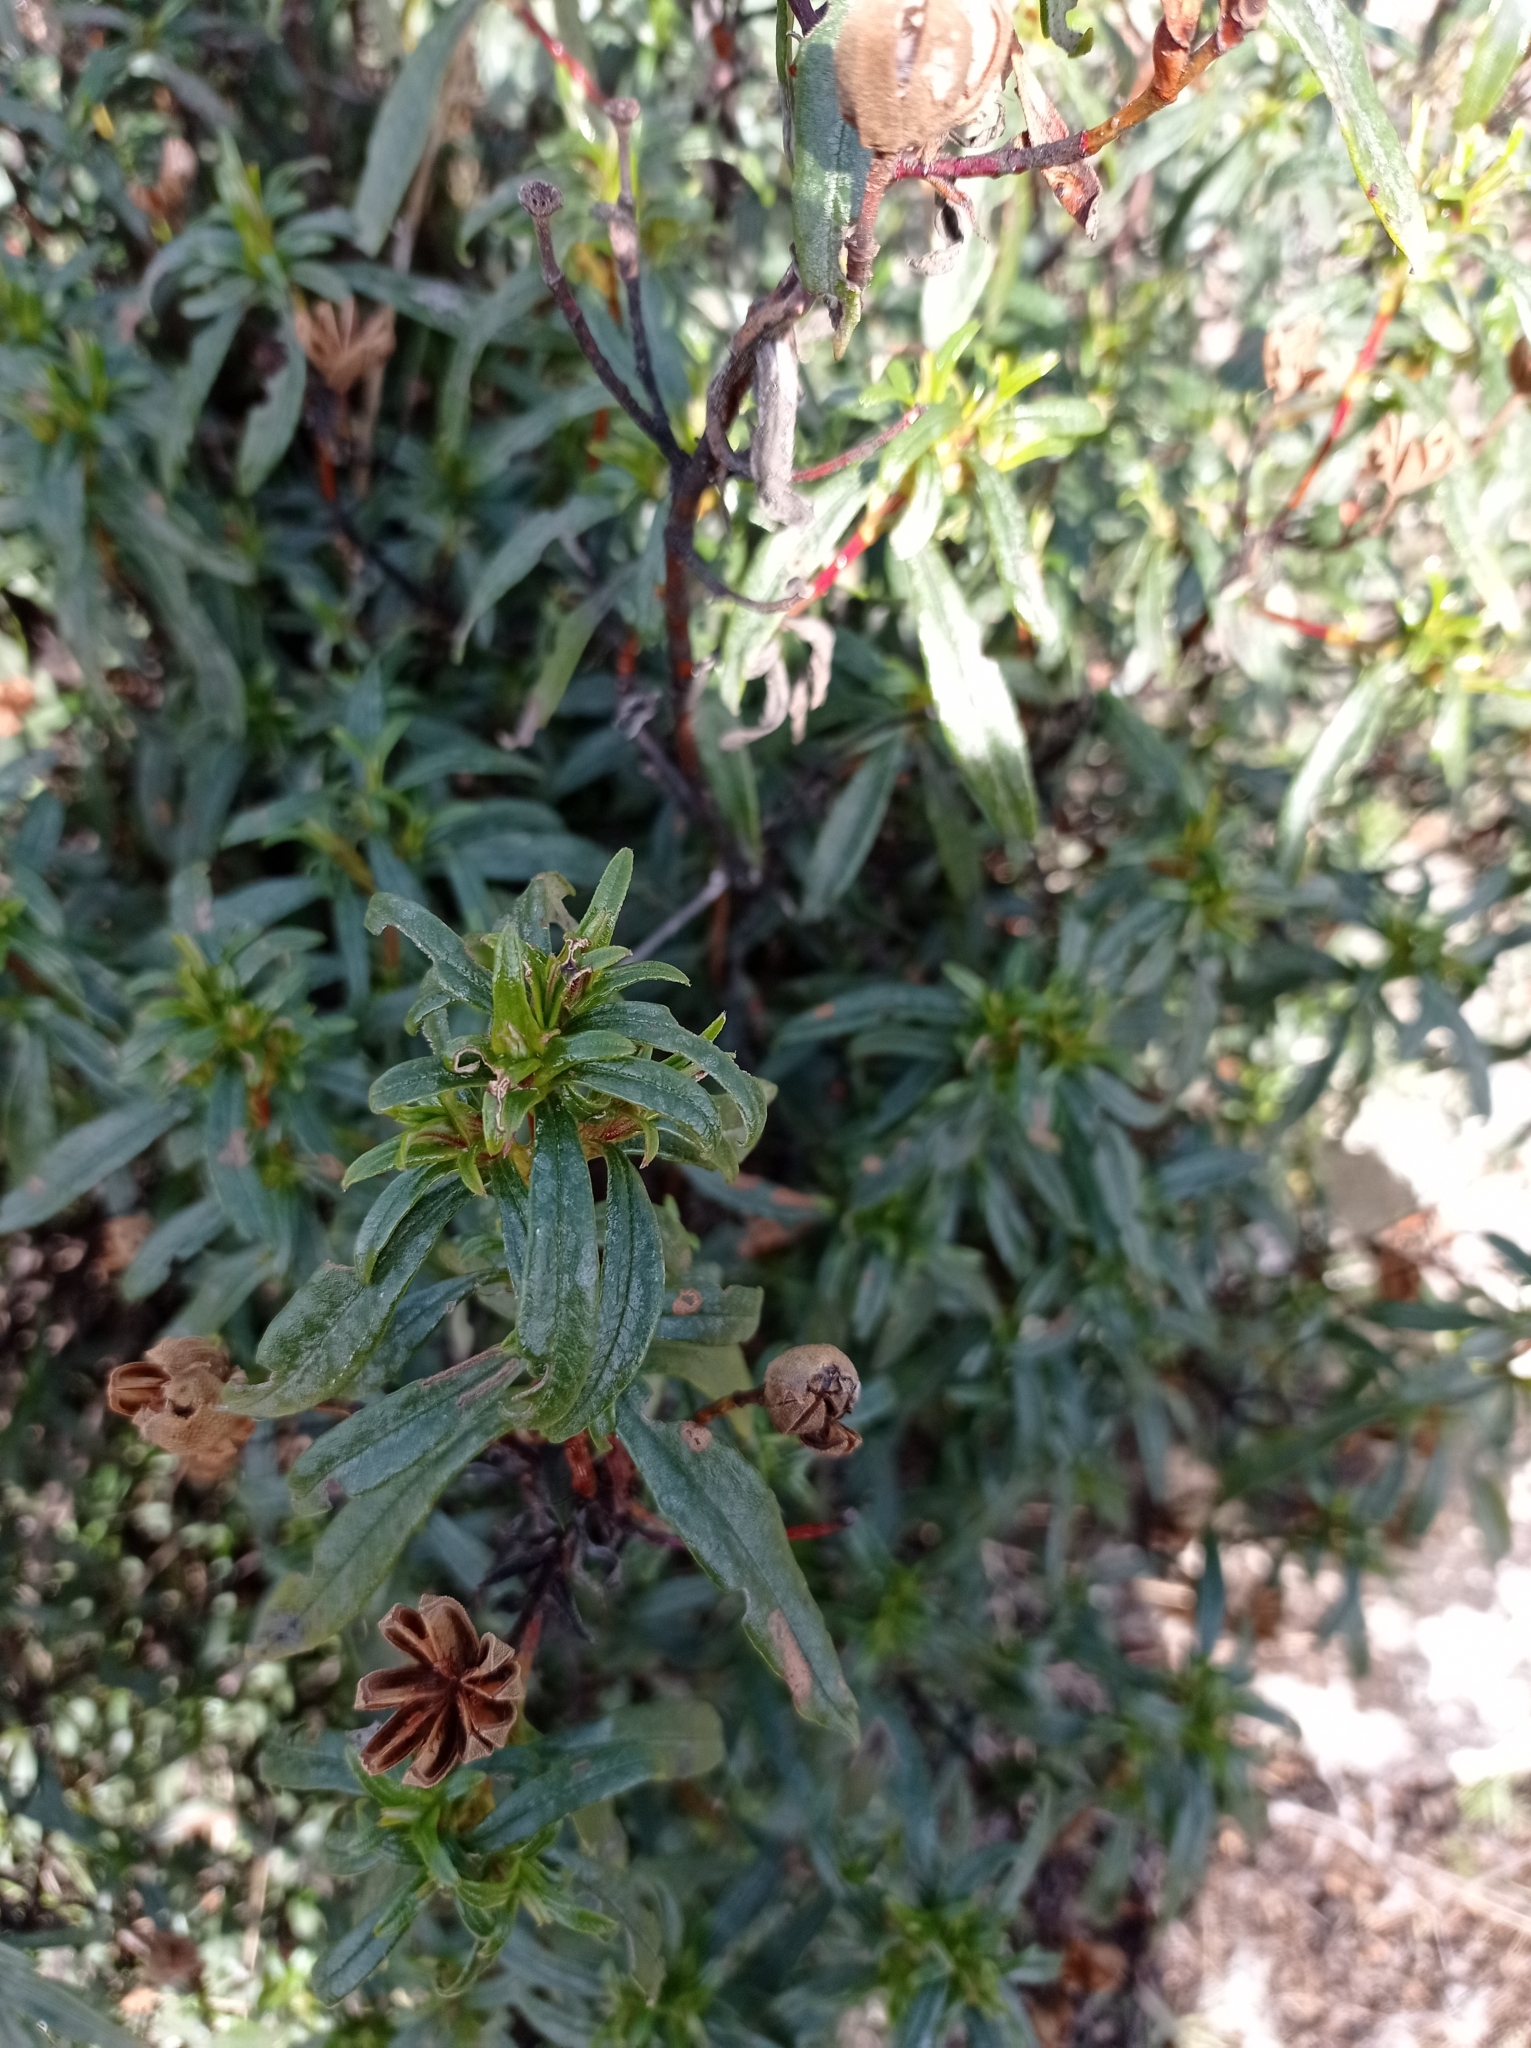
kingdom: Plantae
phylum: Tracheophyta
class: Magnoliopsida
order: Malvales
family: Cistaceae
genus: Cistus
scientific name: Cistus ladanifer
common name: Common gum cistus
